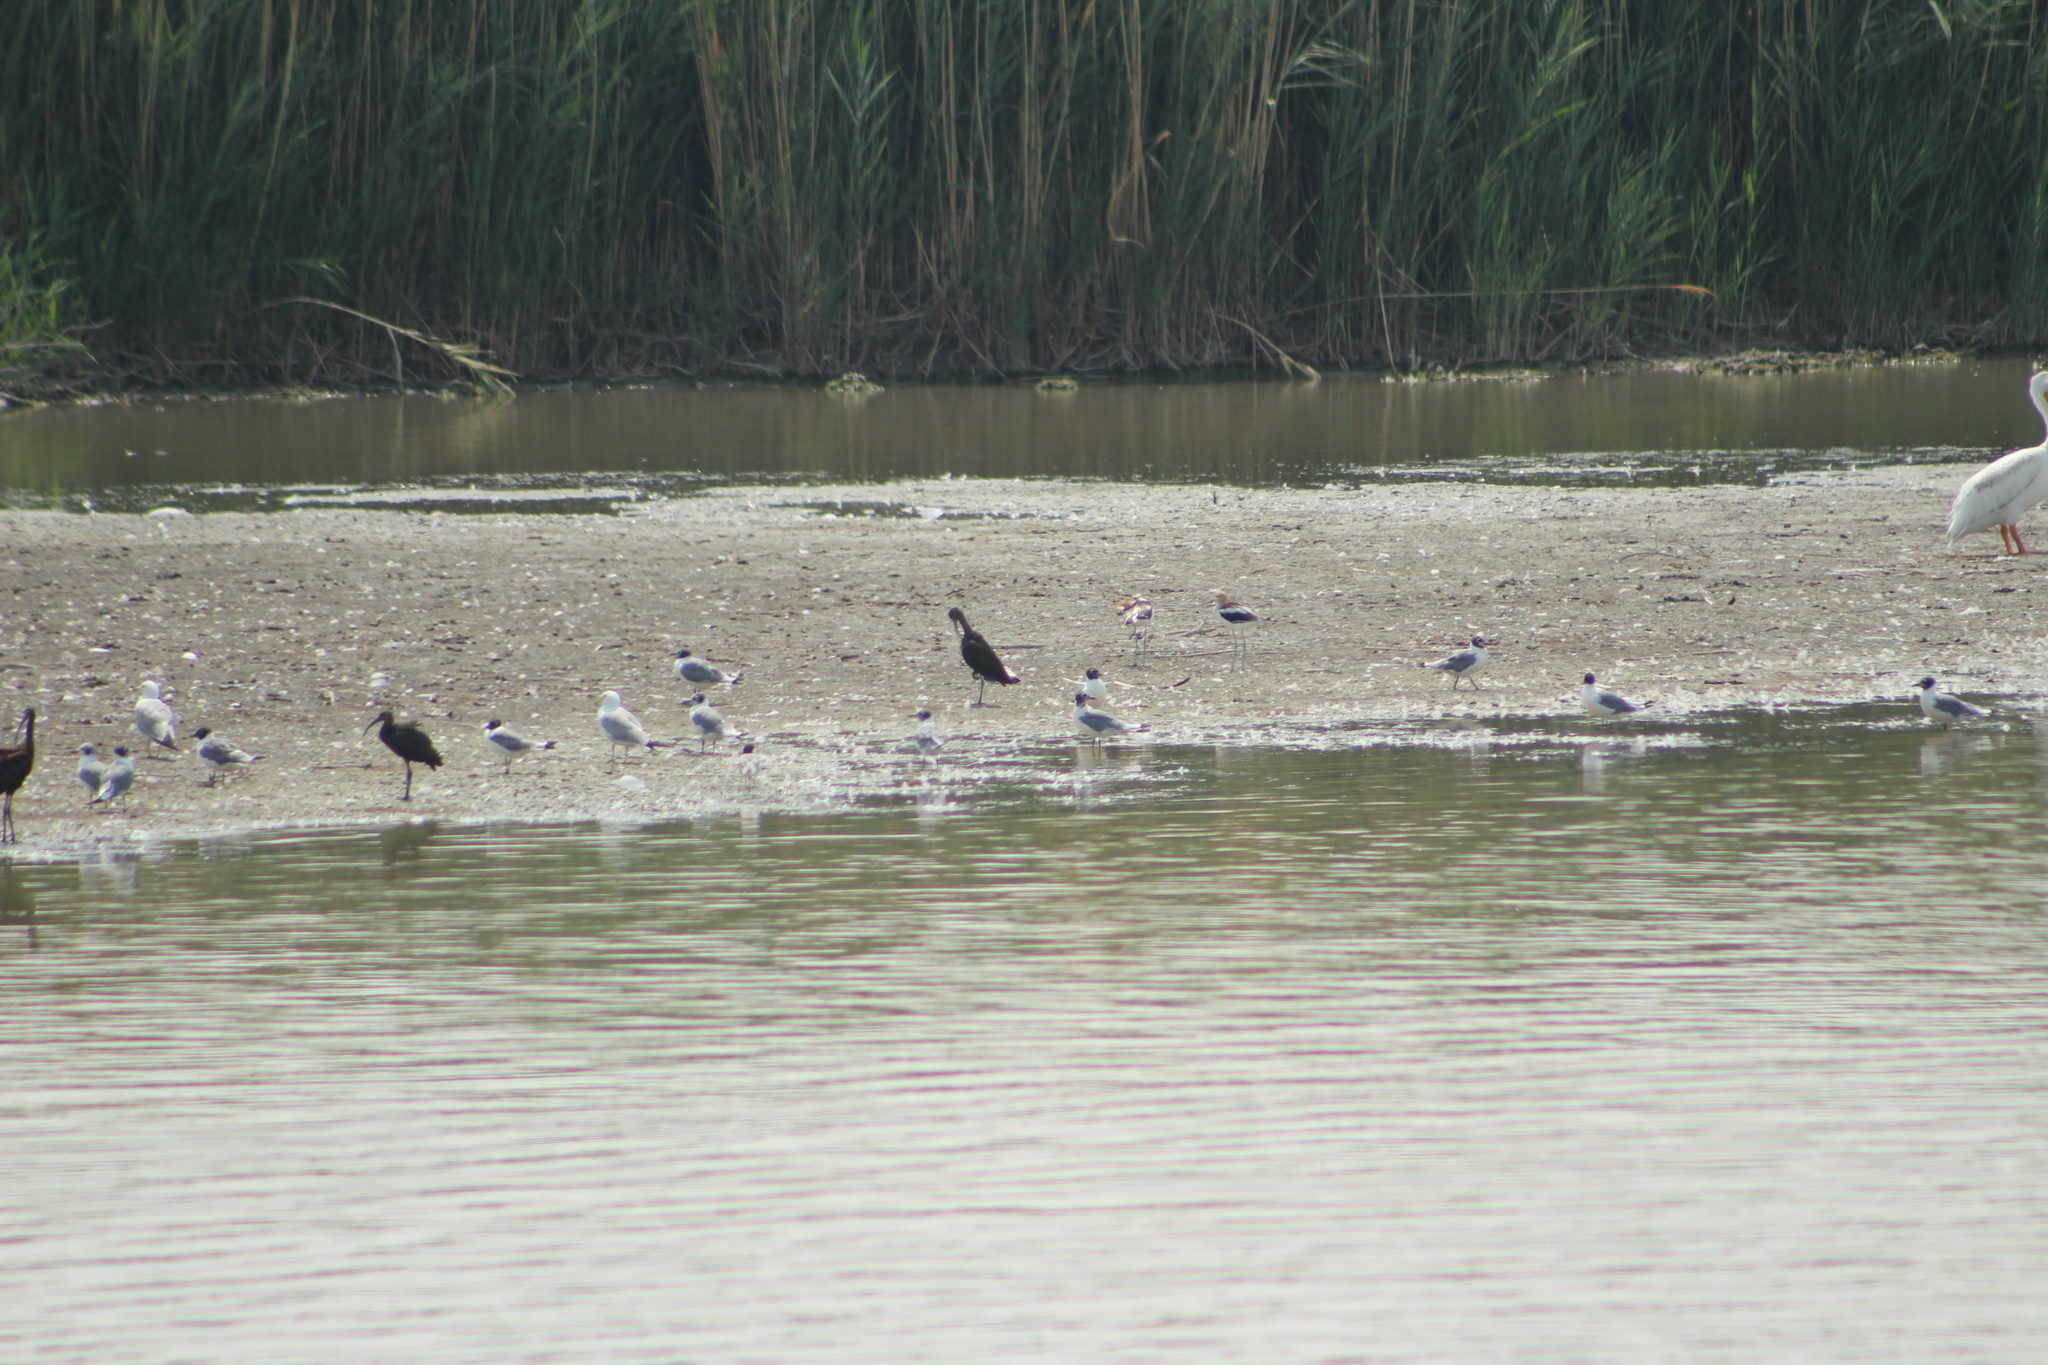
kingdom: Animalia
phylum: Chordata
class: Aves
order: Charadriiformes
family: Laridae
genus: Leucophaeus
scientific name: Leucophaeus pipixcan
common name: Franklin's gull
